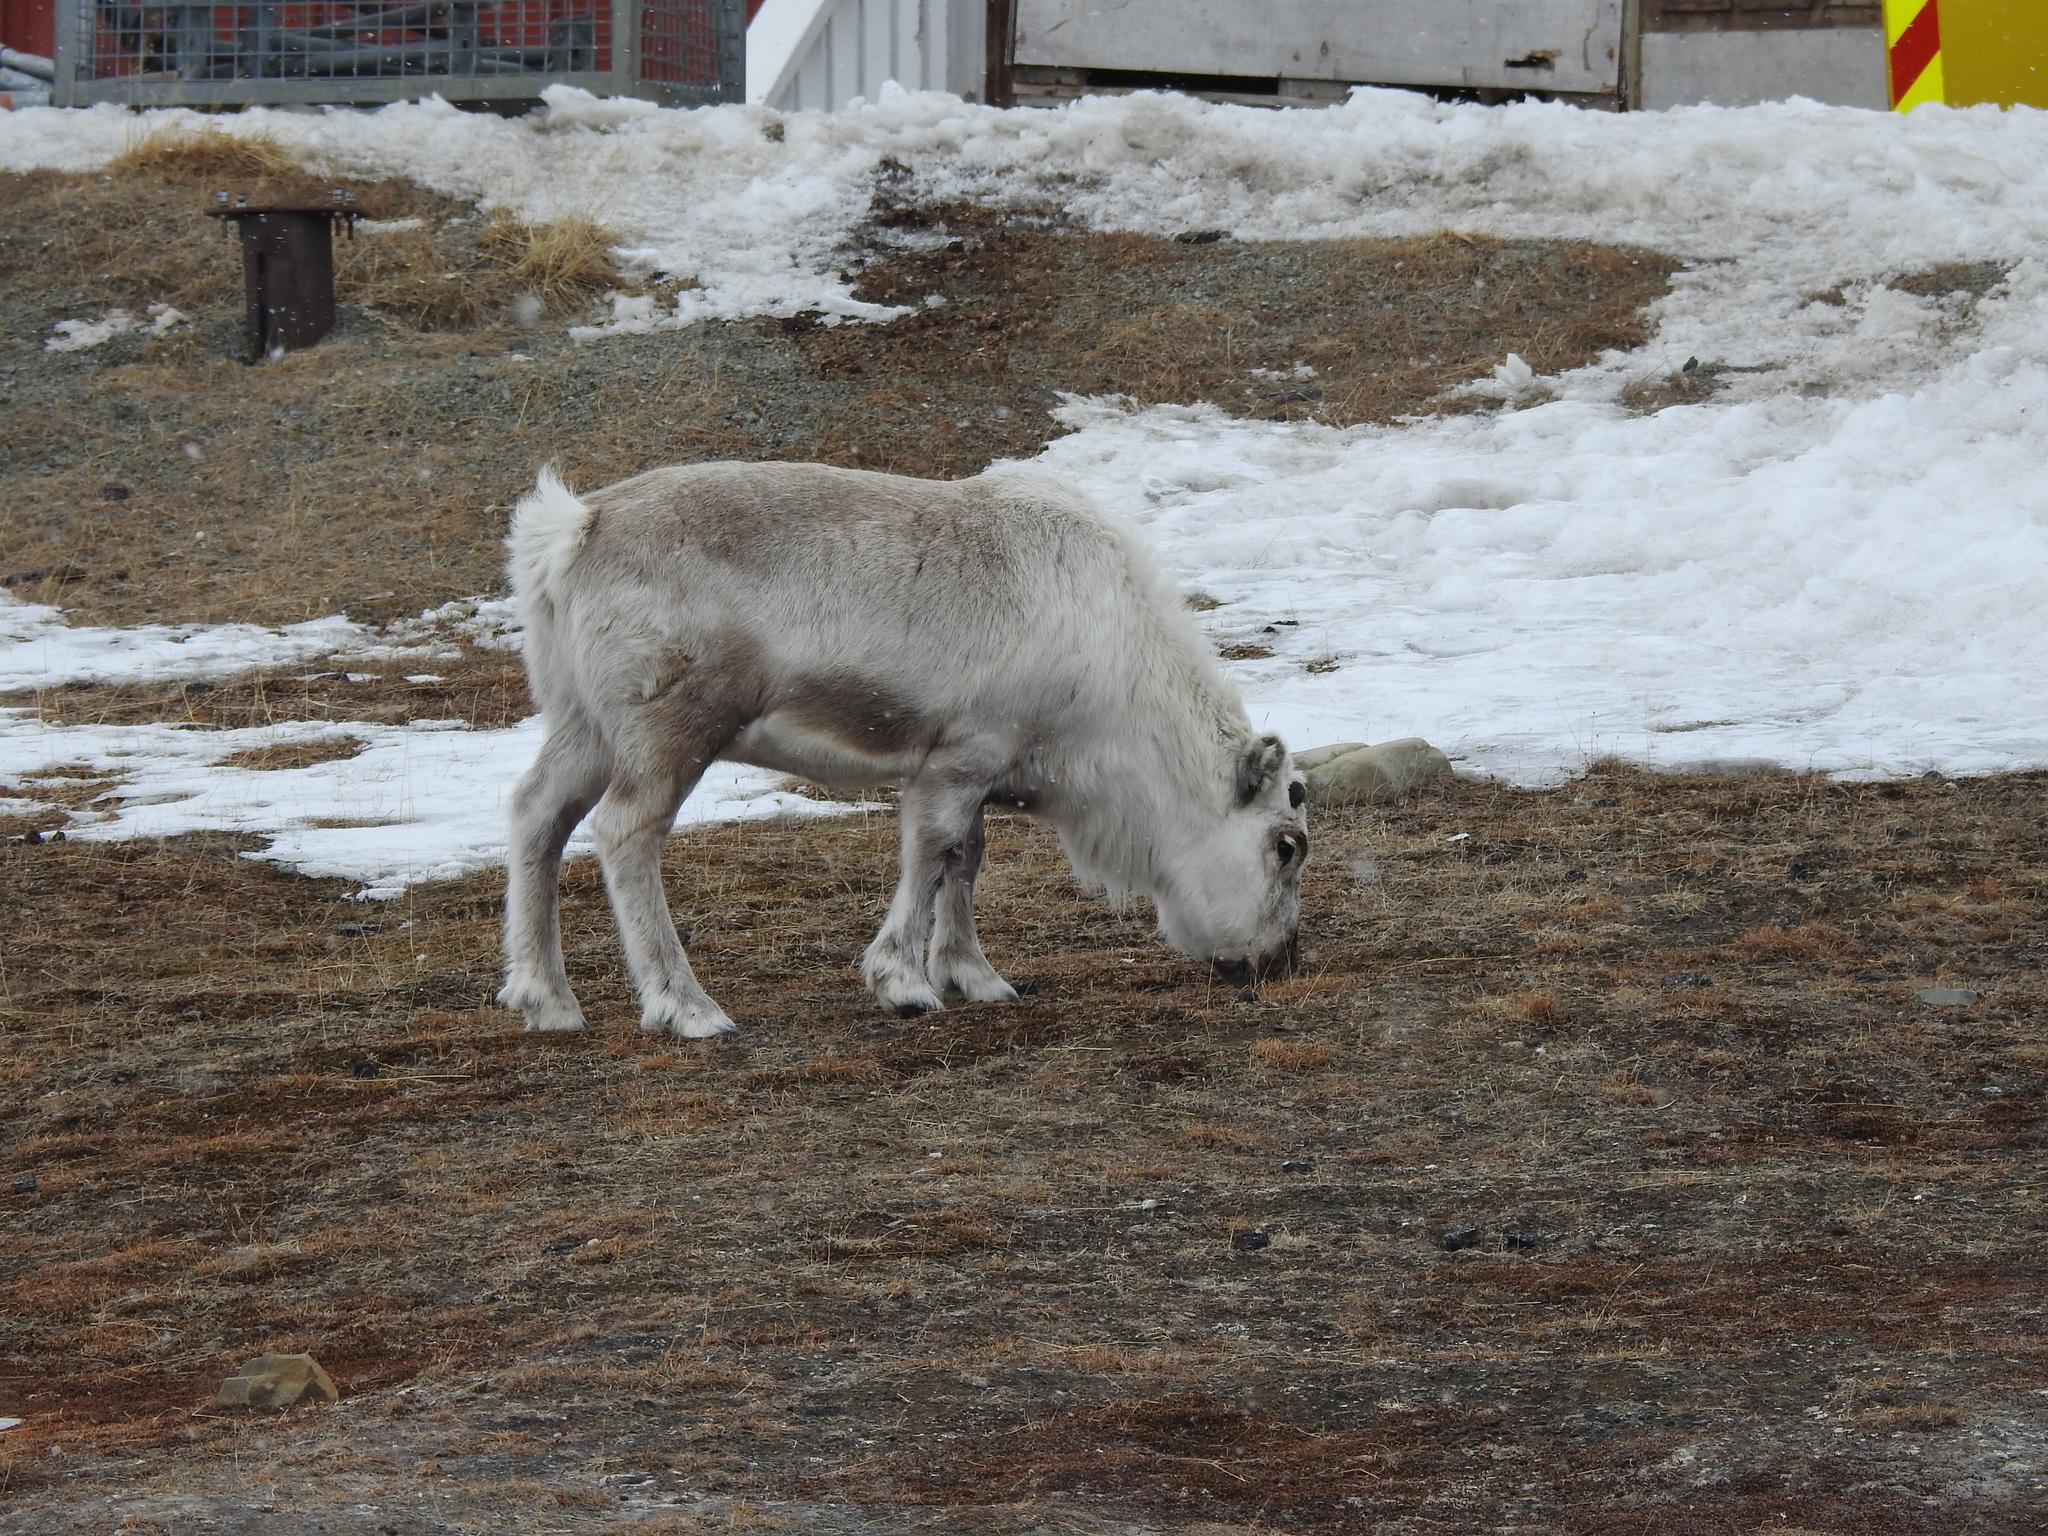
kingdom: Animalia
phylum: Chordata
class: Mammalia
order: Artiodactyla
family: Cervidae
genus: Rangifer
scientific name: Rangifer tarandus
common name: Reindeer
